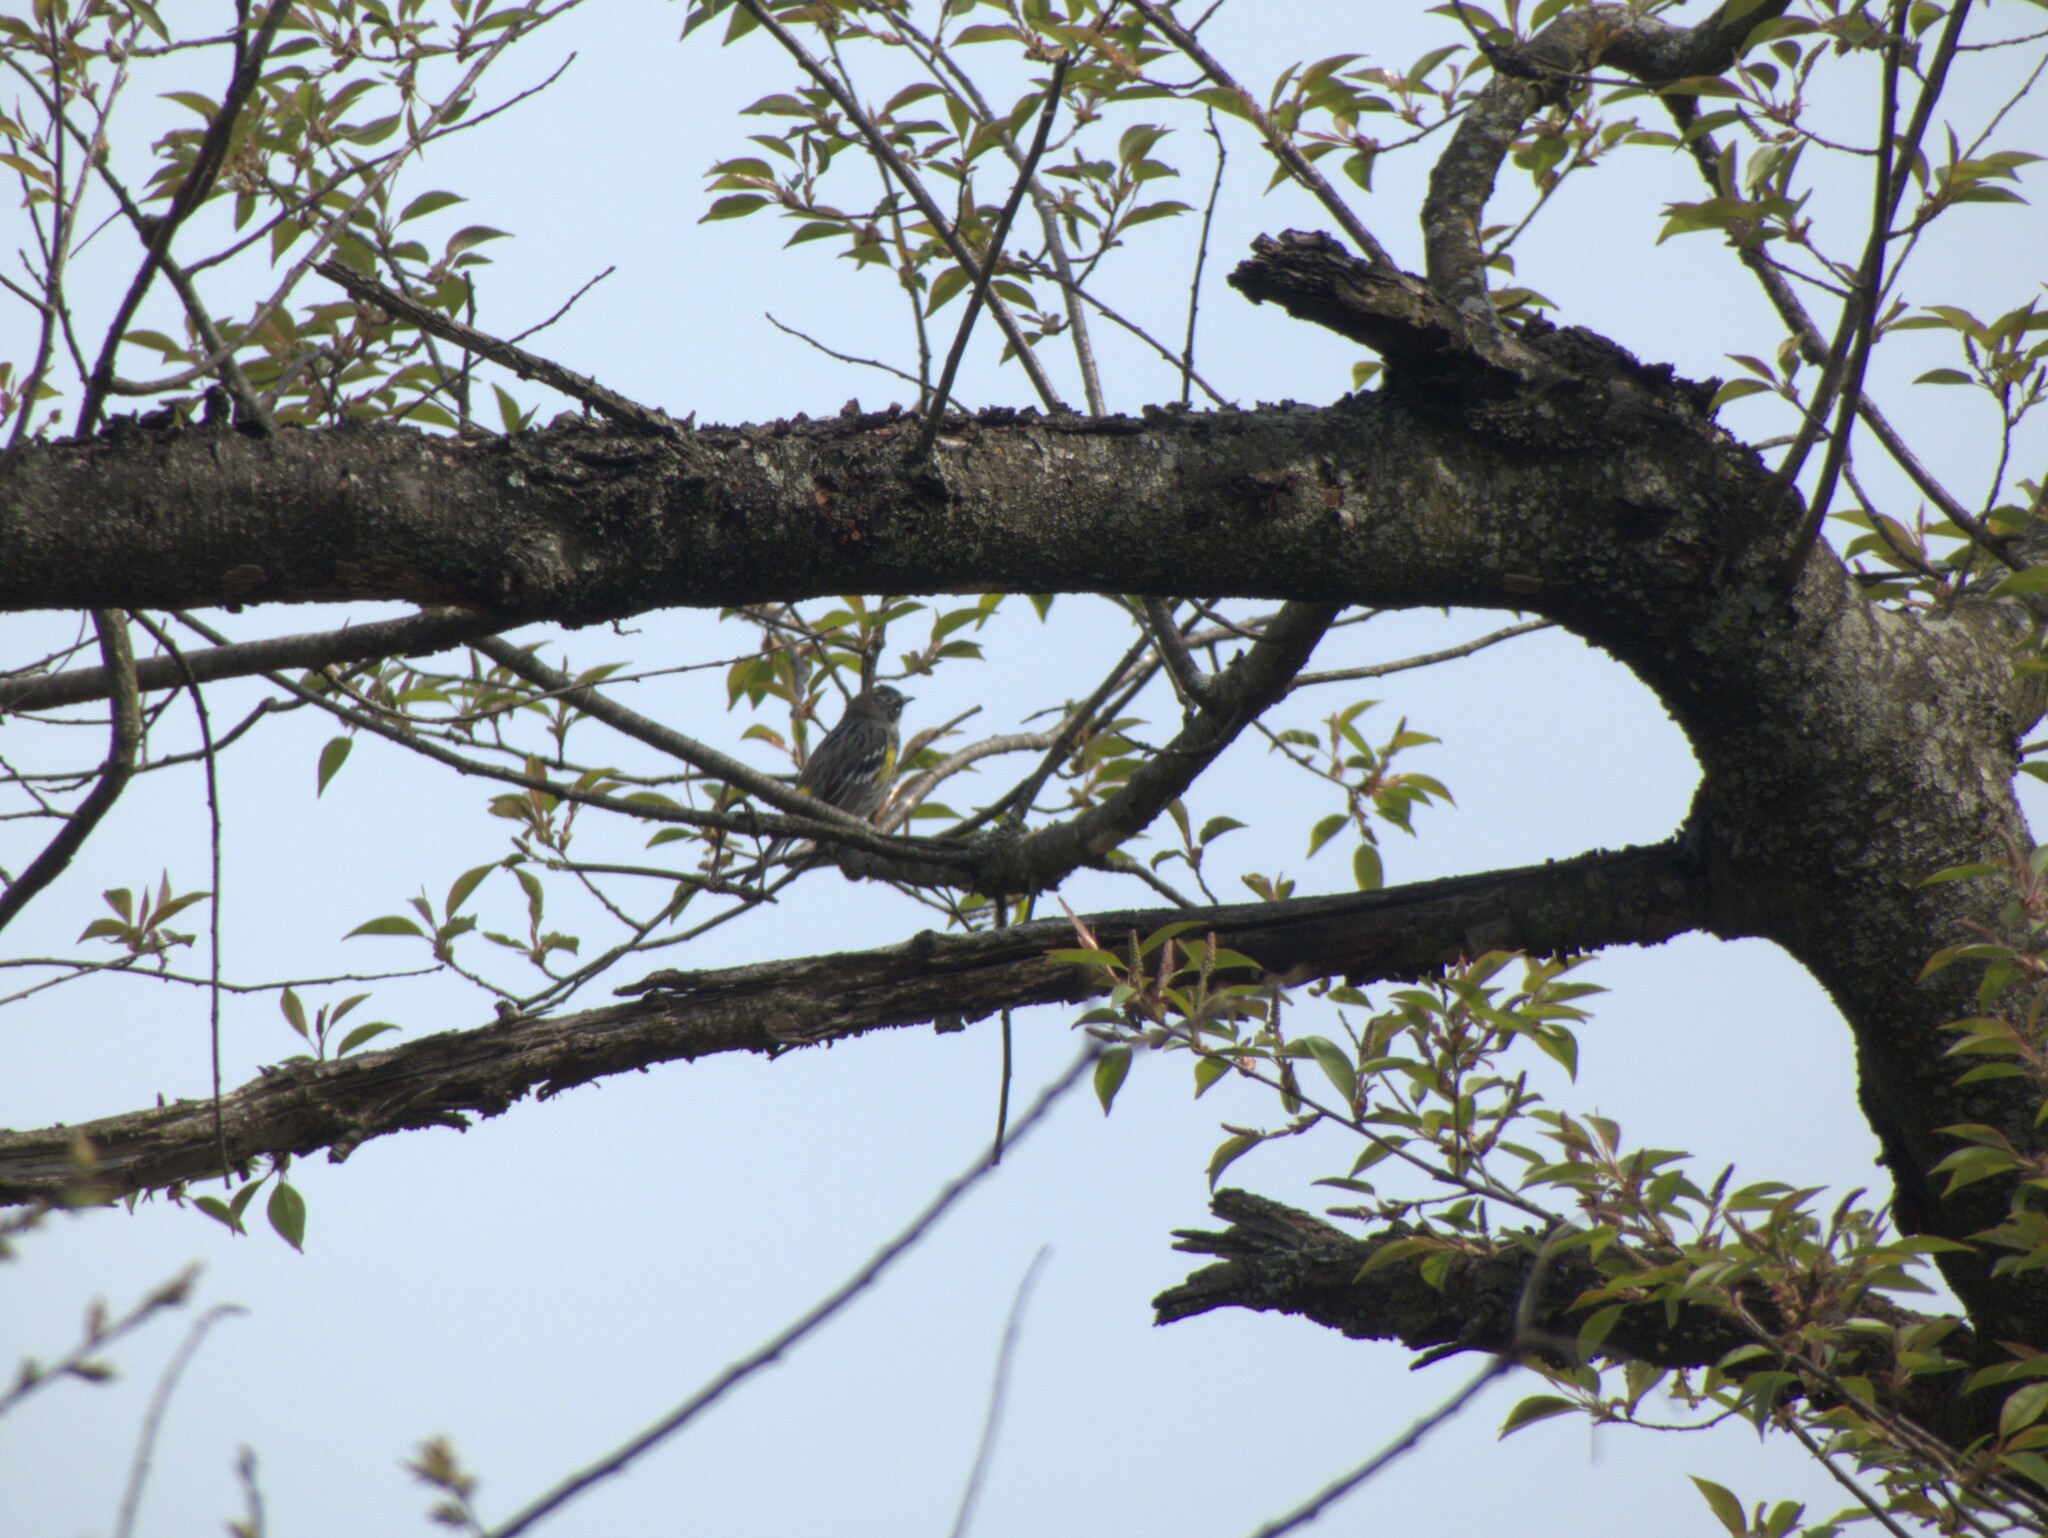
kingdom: Animalia
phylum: Chordata
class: Aves
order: Passeriformes
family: Parulidae
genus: Setophaga
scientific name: Setophaga coronata
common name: Myrtle warbler
